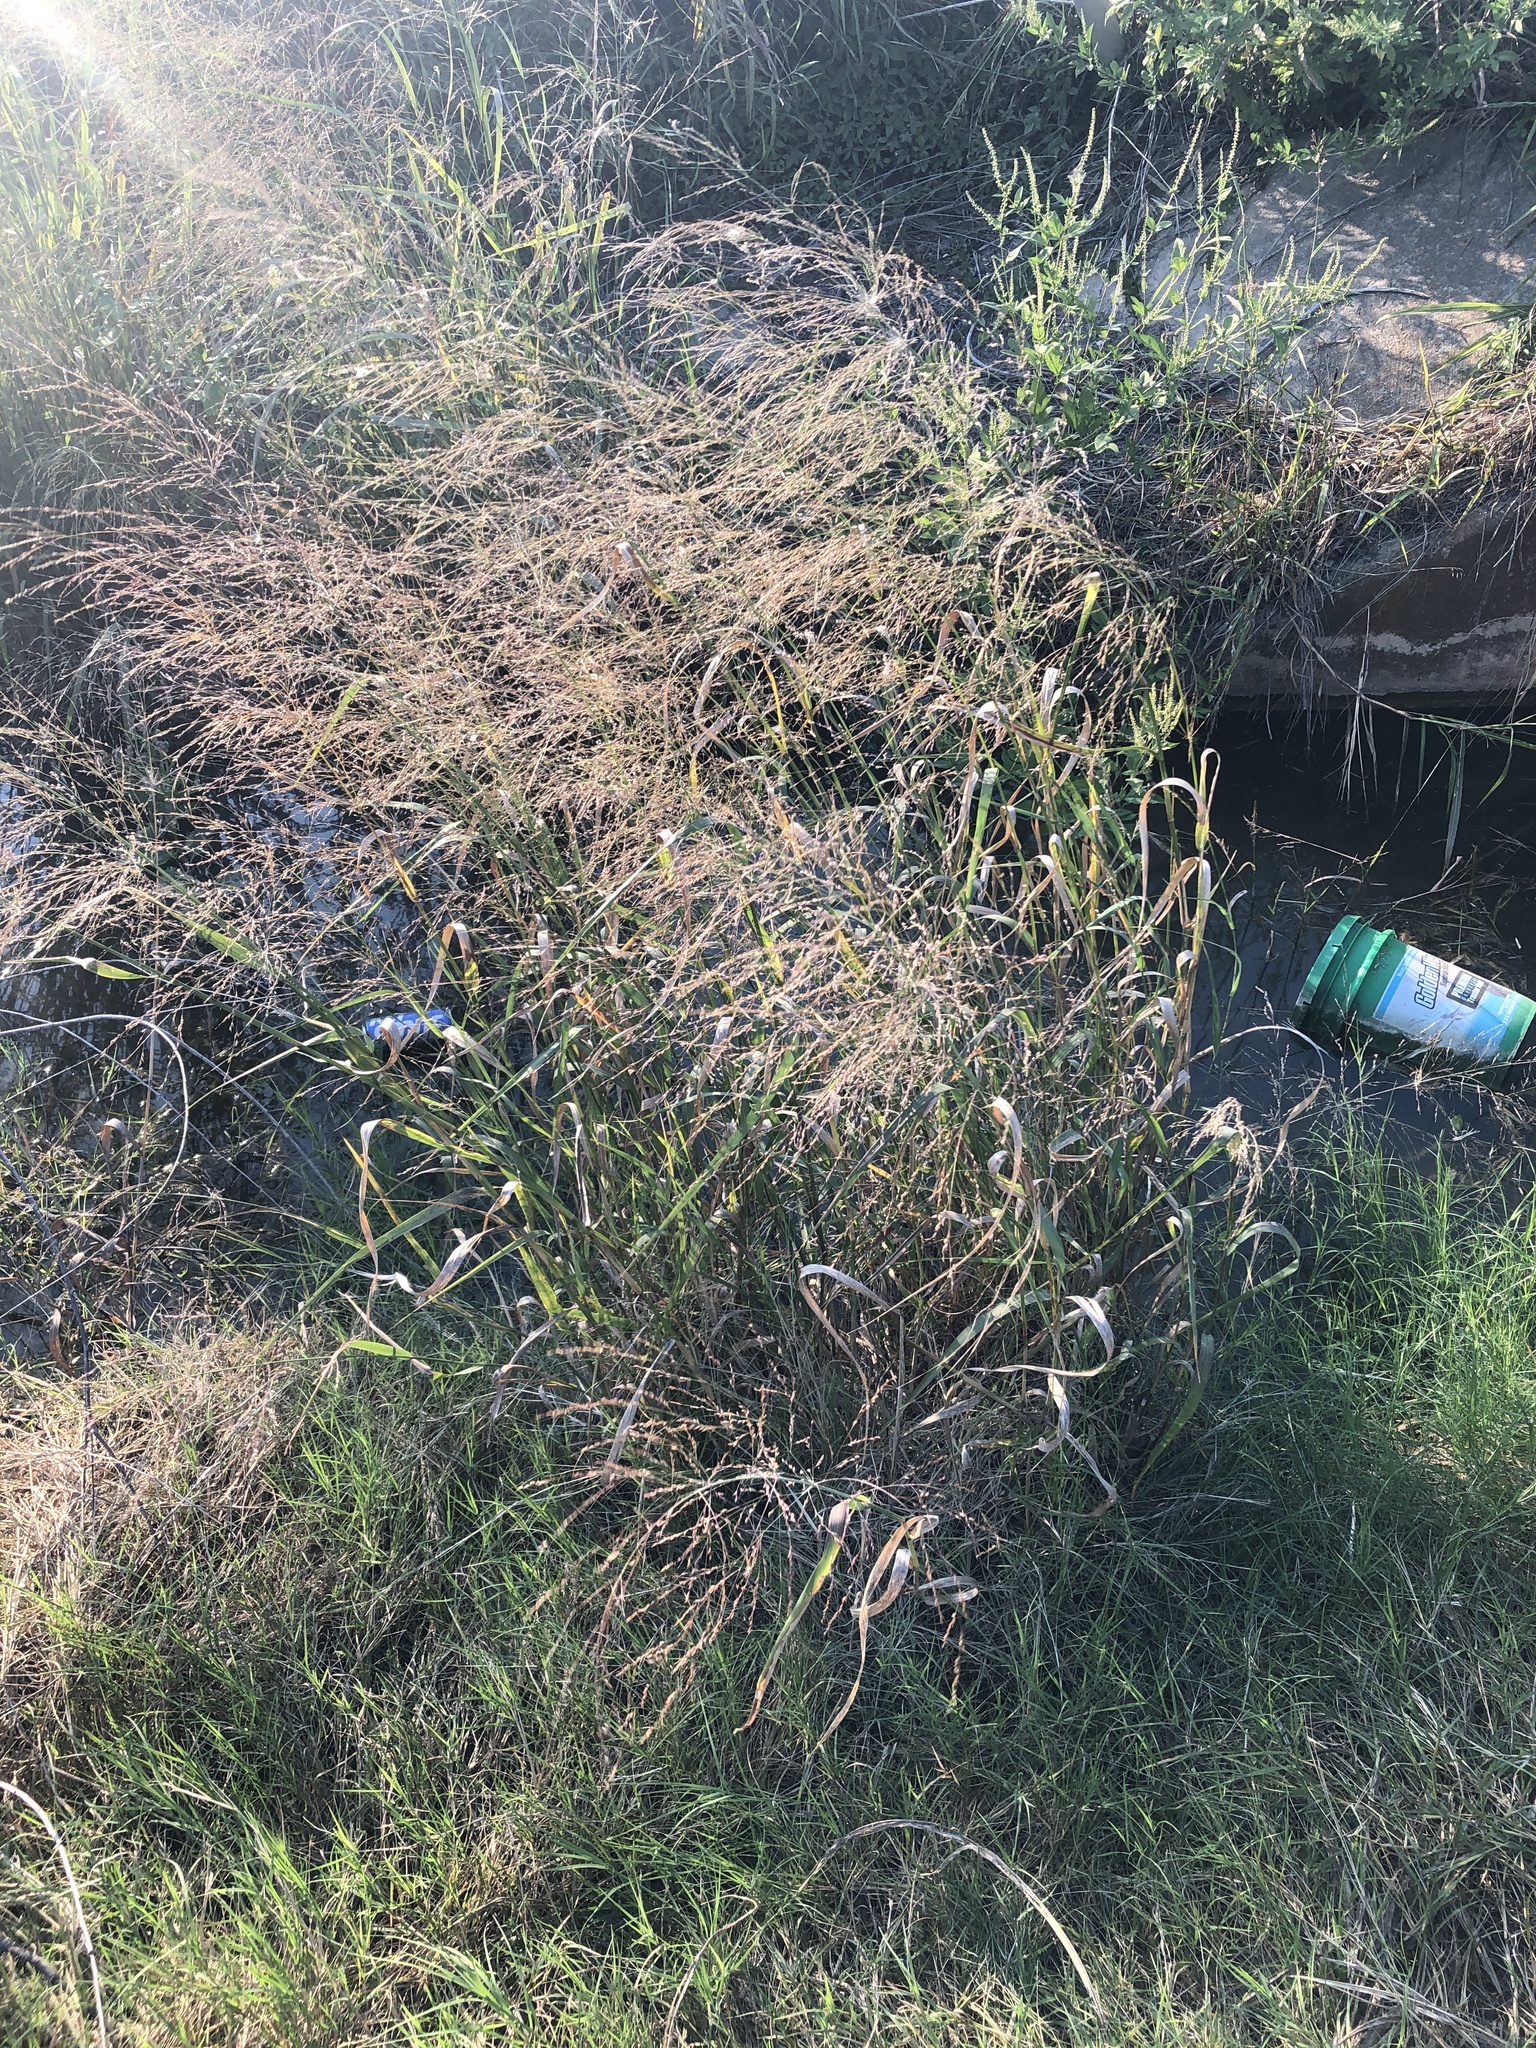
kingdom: Plantae
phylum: Tracheophyta
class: Liliopsida
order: Poales
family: Poaceae
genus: Panicum
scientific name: Panicum virgatum
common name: Switchgrass
